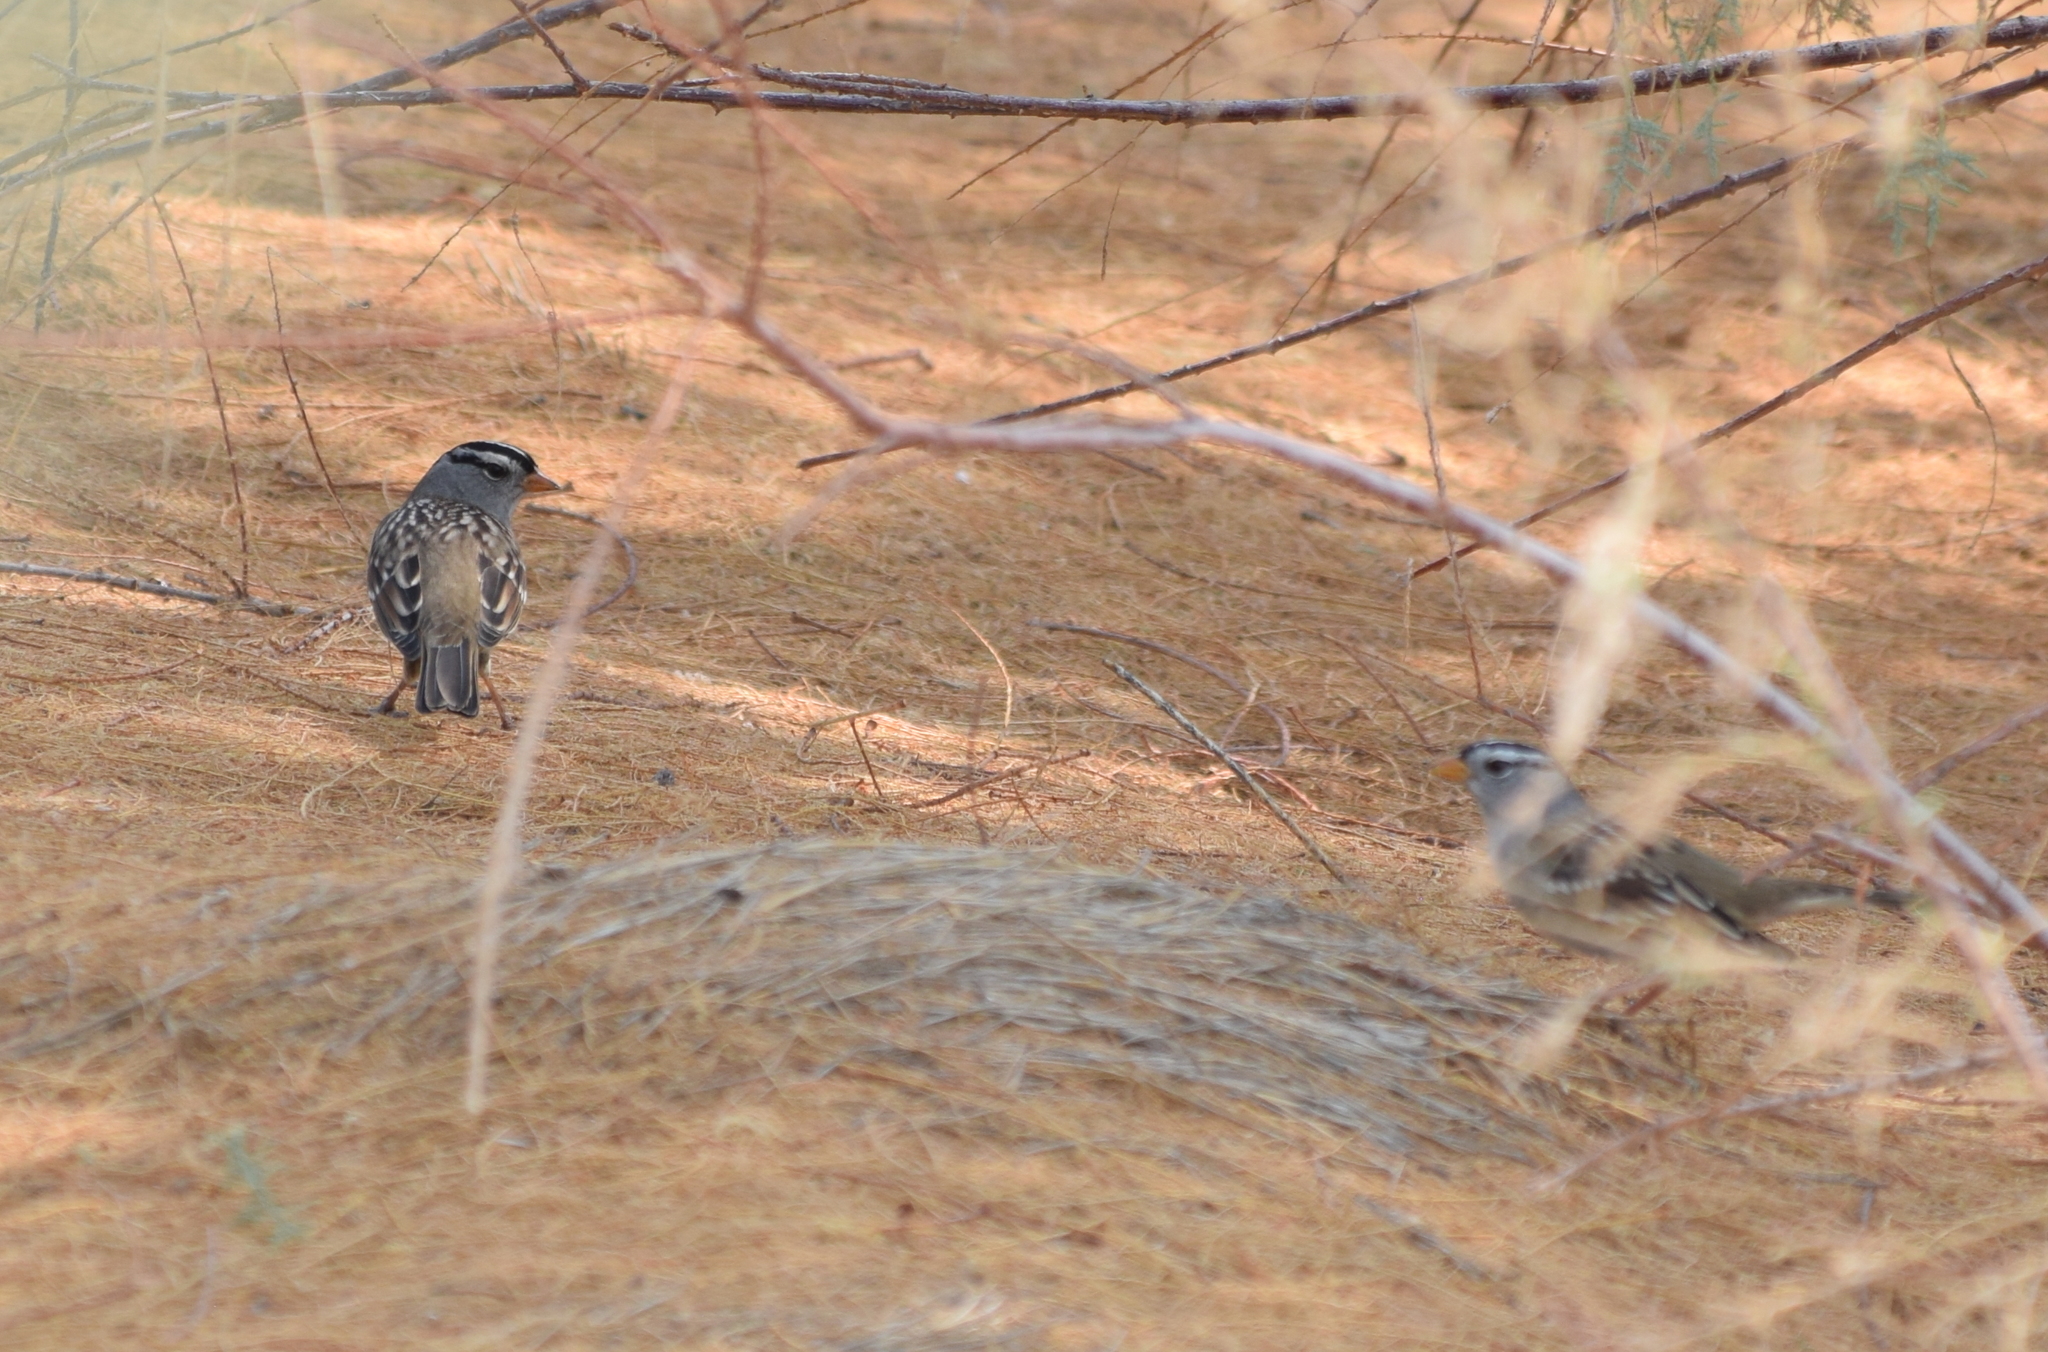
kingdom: Animalia
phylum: Chordata
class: Aves
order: Passeriformes
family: Passerellidae
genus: Zonotrichia
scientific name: Zonotrichia leucophrys
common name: White-crowned sparrow
